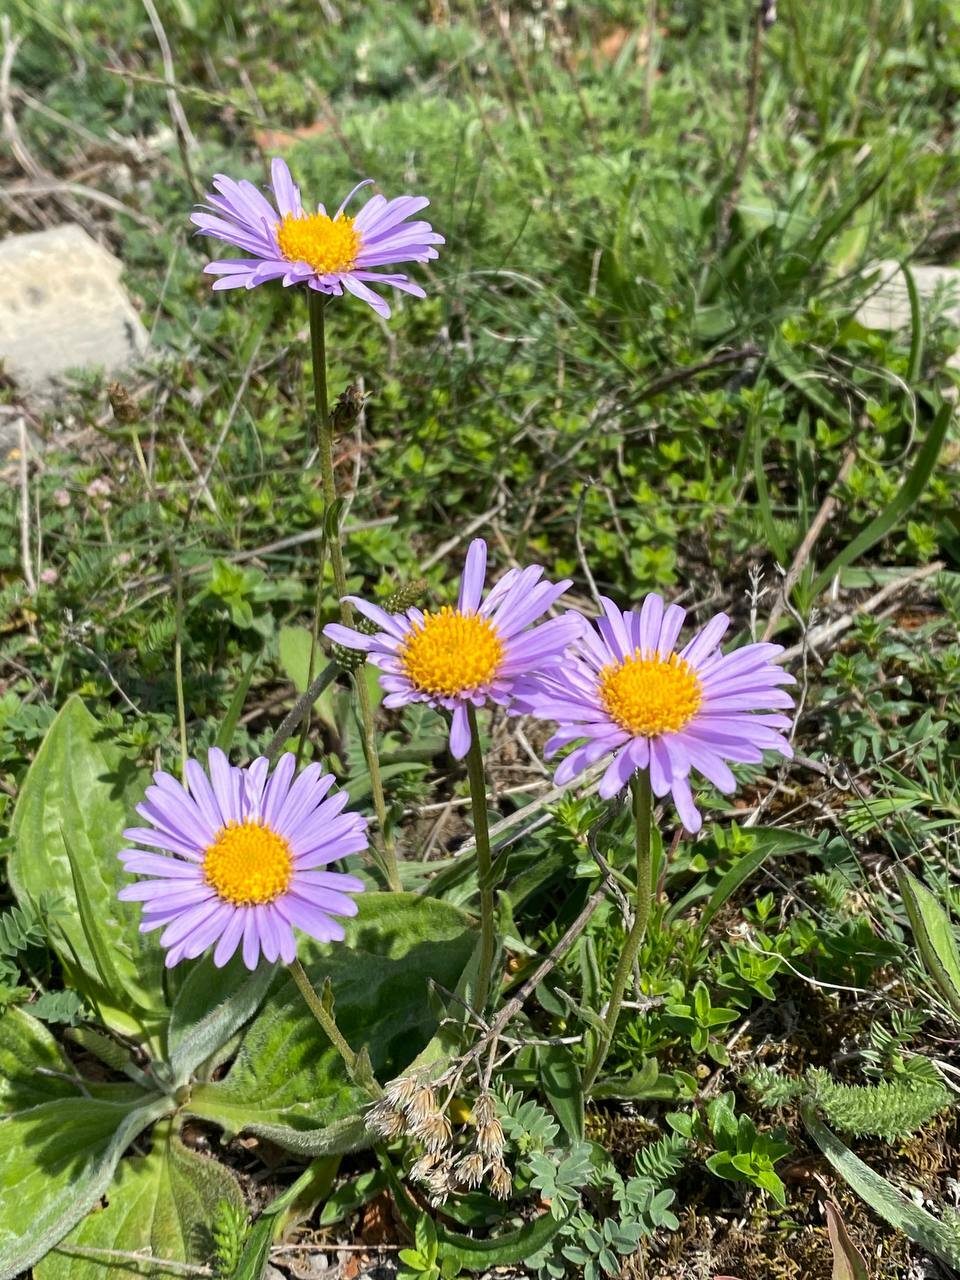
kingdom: Plantae
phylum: Tracheophyta
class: Magnoliopsida
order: Asterales
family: Asteraceae
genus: Aster
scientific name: Aster alpinus
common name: Alpine aster
